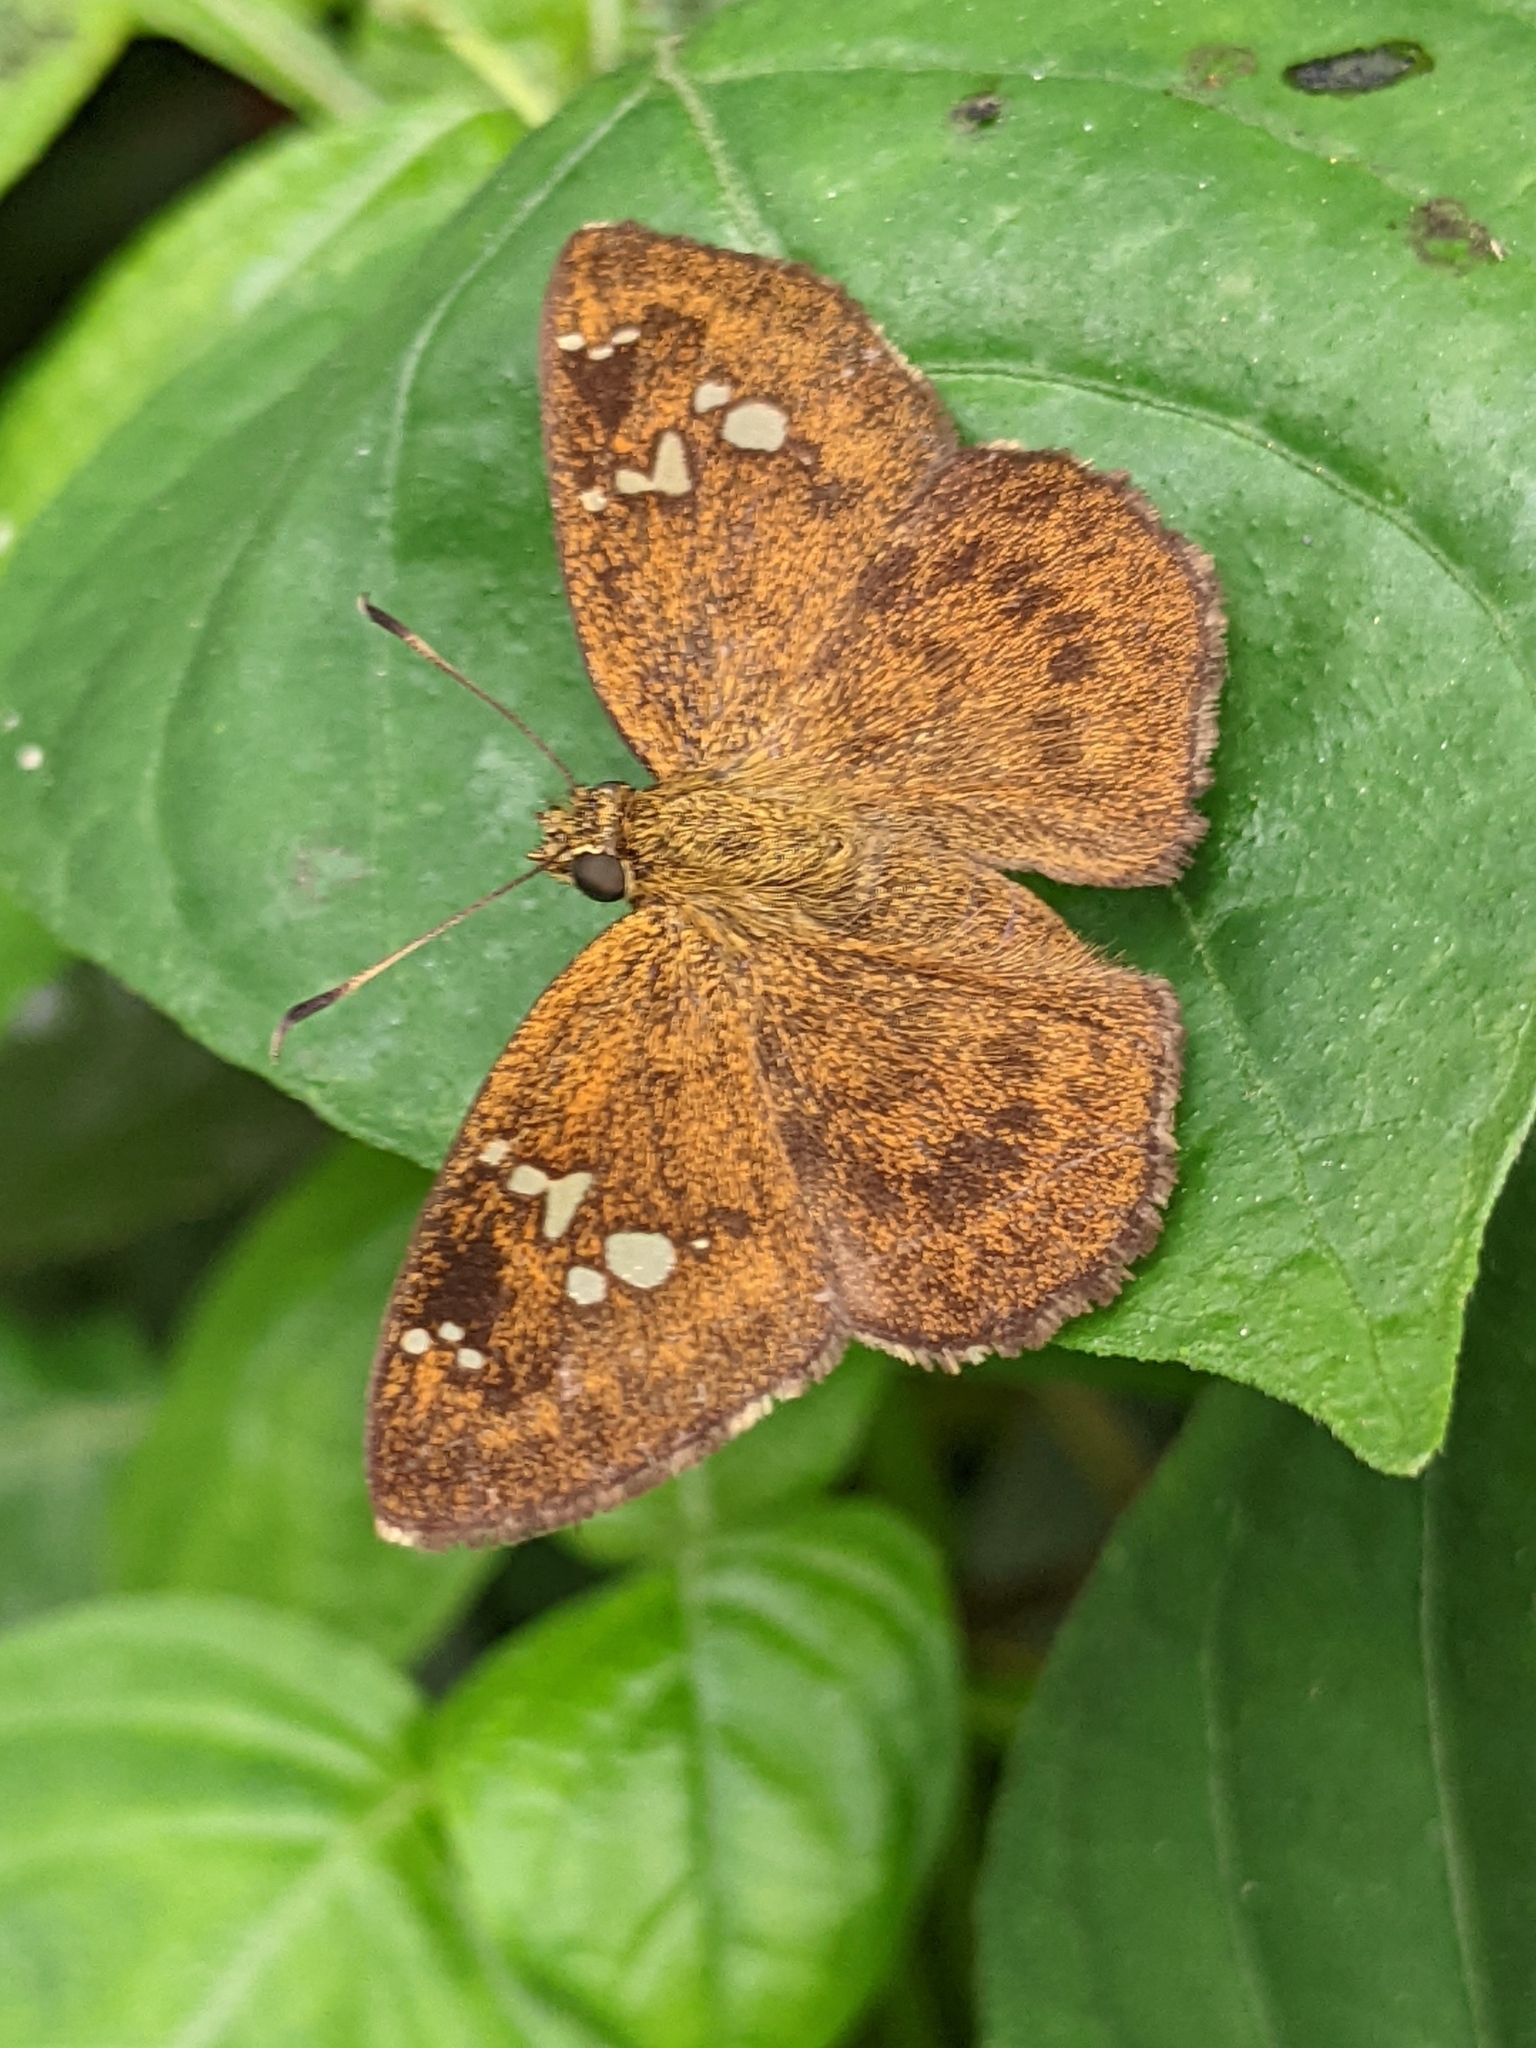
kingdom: Animalia
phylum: Arthropoda
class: Insecta
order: Lepidoptera
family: Hesperiidae
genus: Pseudocoladenia
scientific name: Pseudocoladenia
